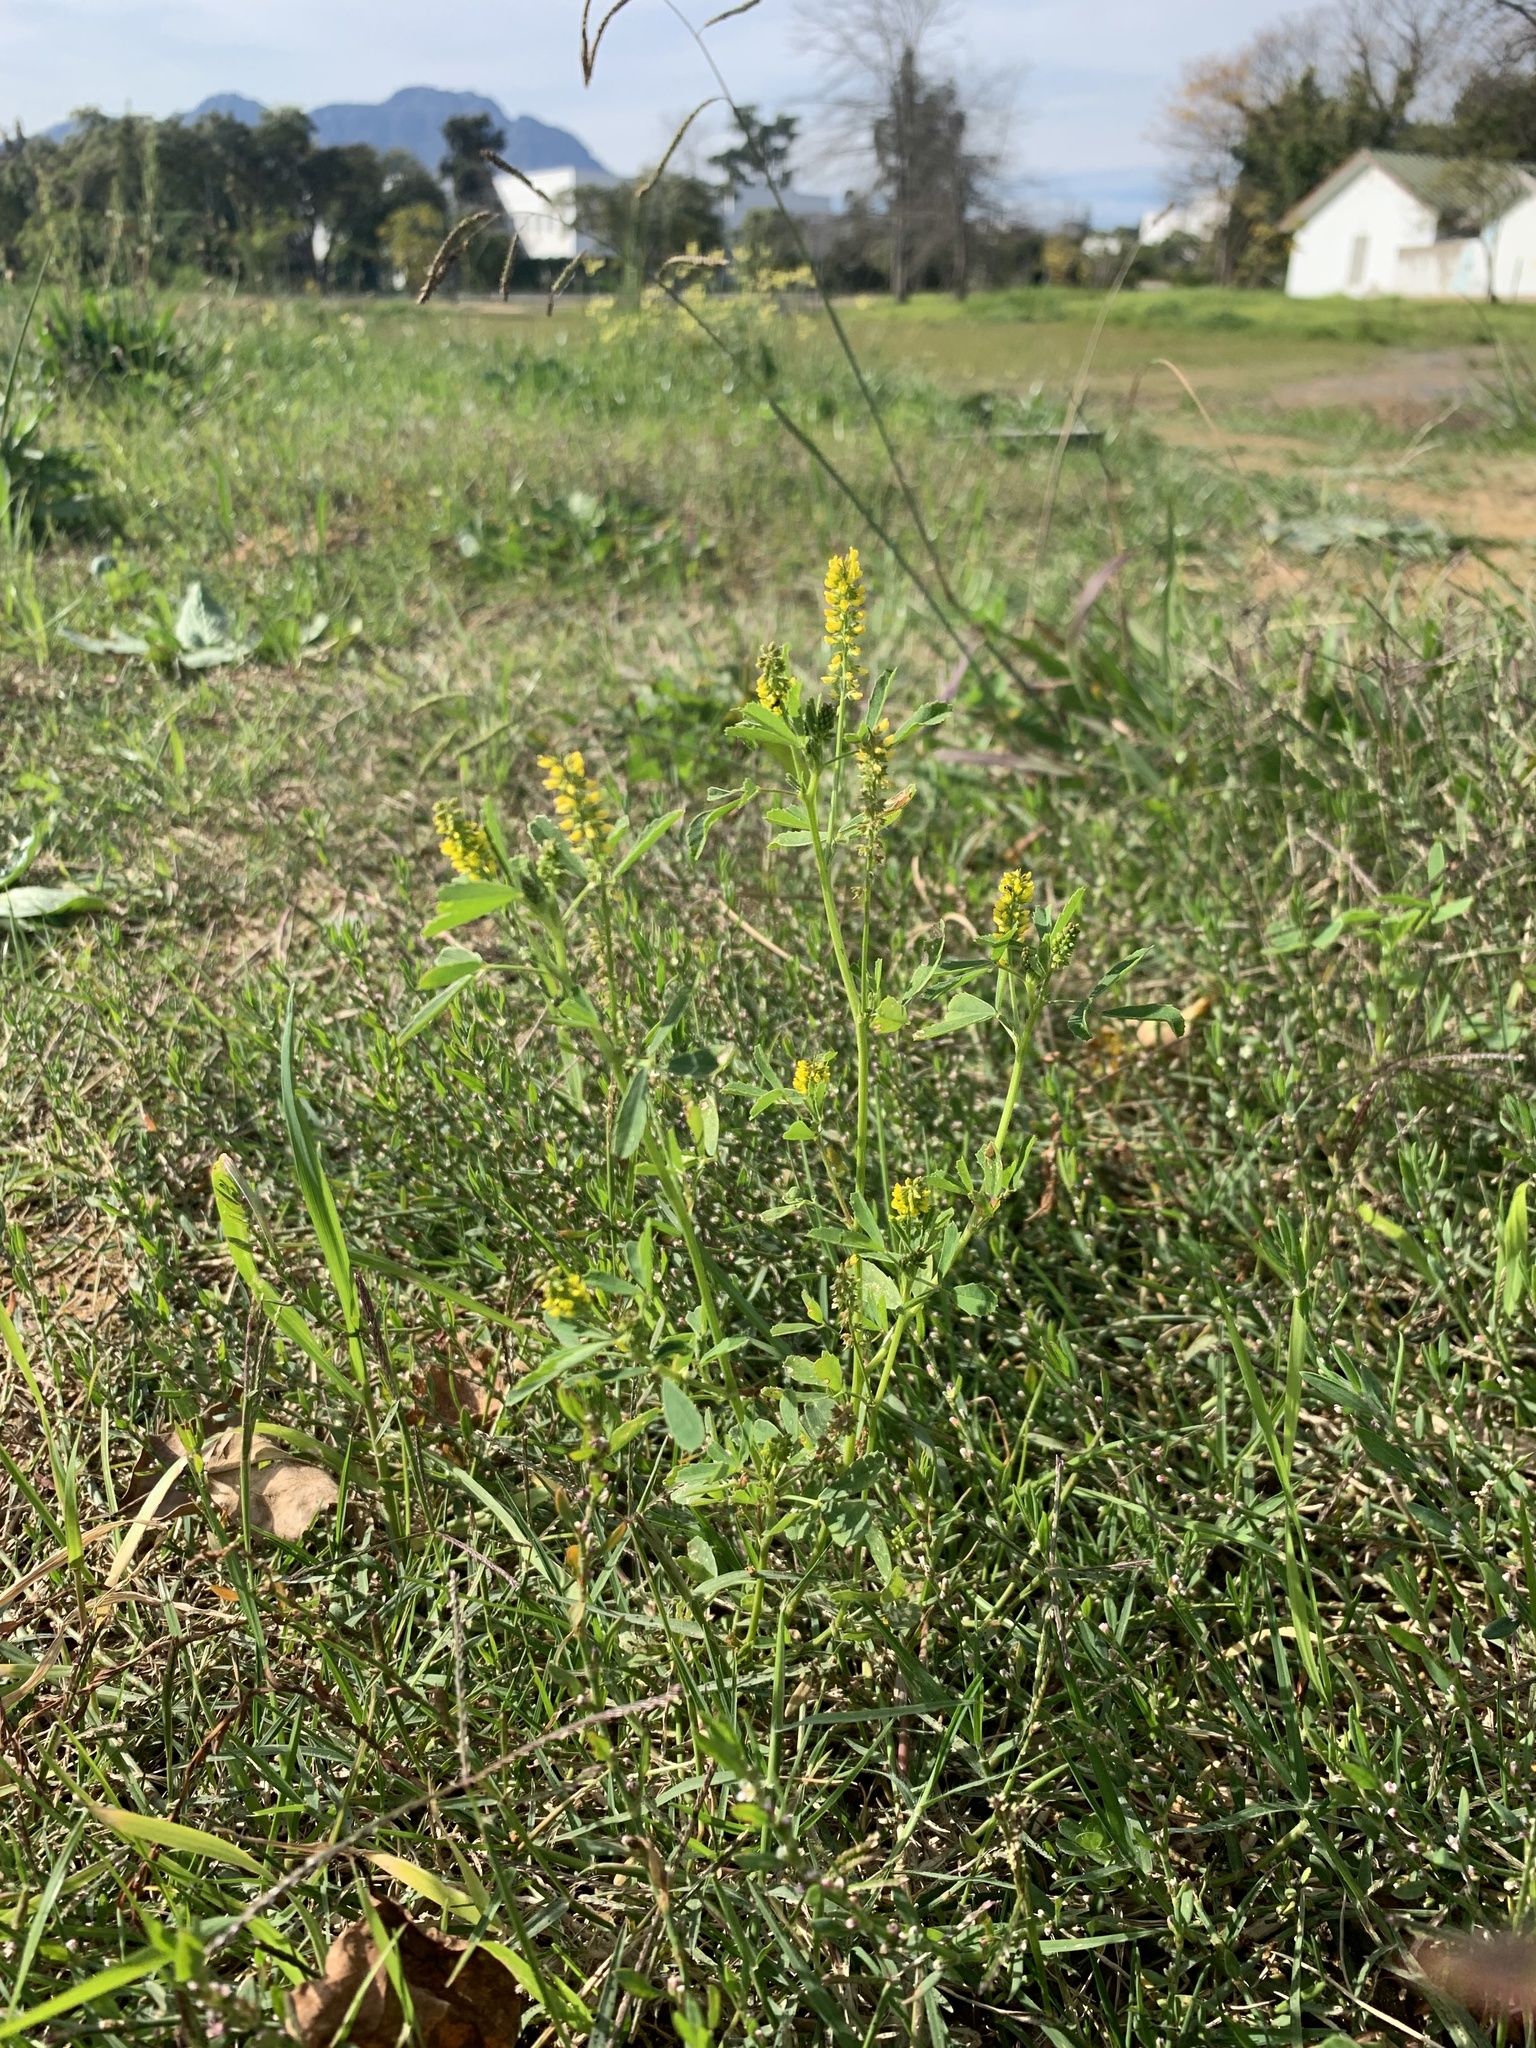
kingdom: Plantae
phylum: Tracheophyta
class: Magnoliopsida
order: Fabales
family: Fabaceae
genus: Melilotus
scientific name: Melilotus indicus
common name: Small melilot
